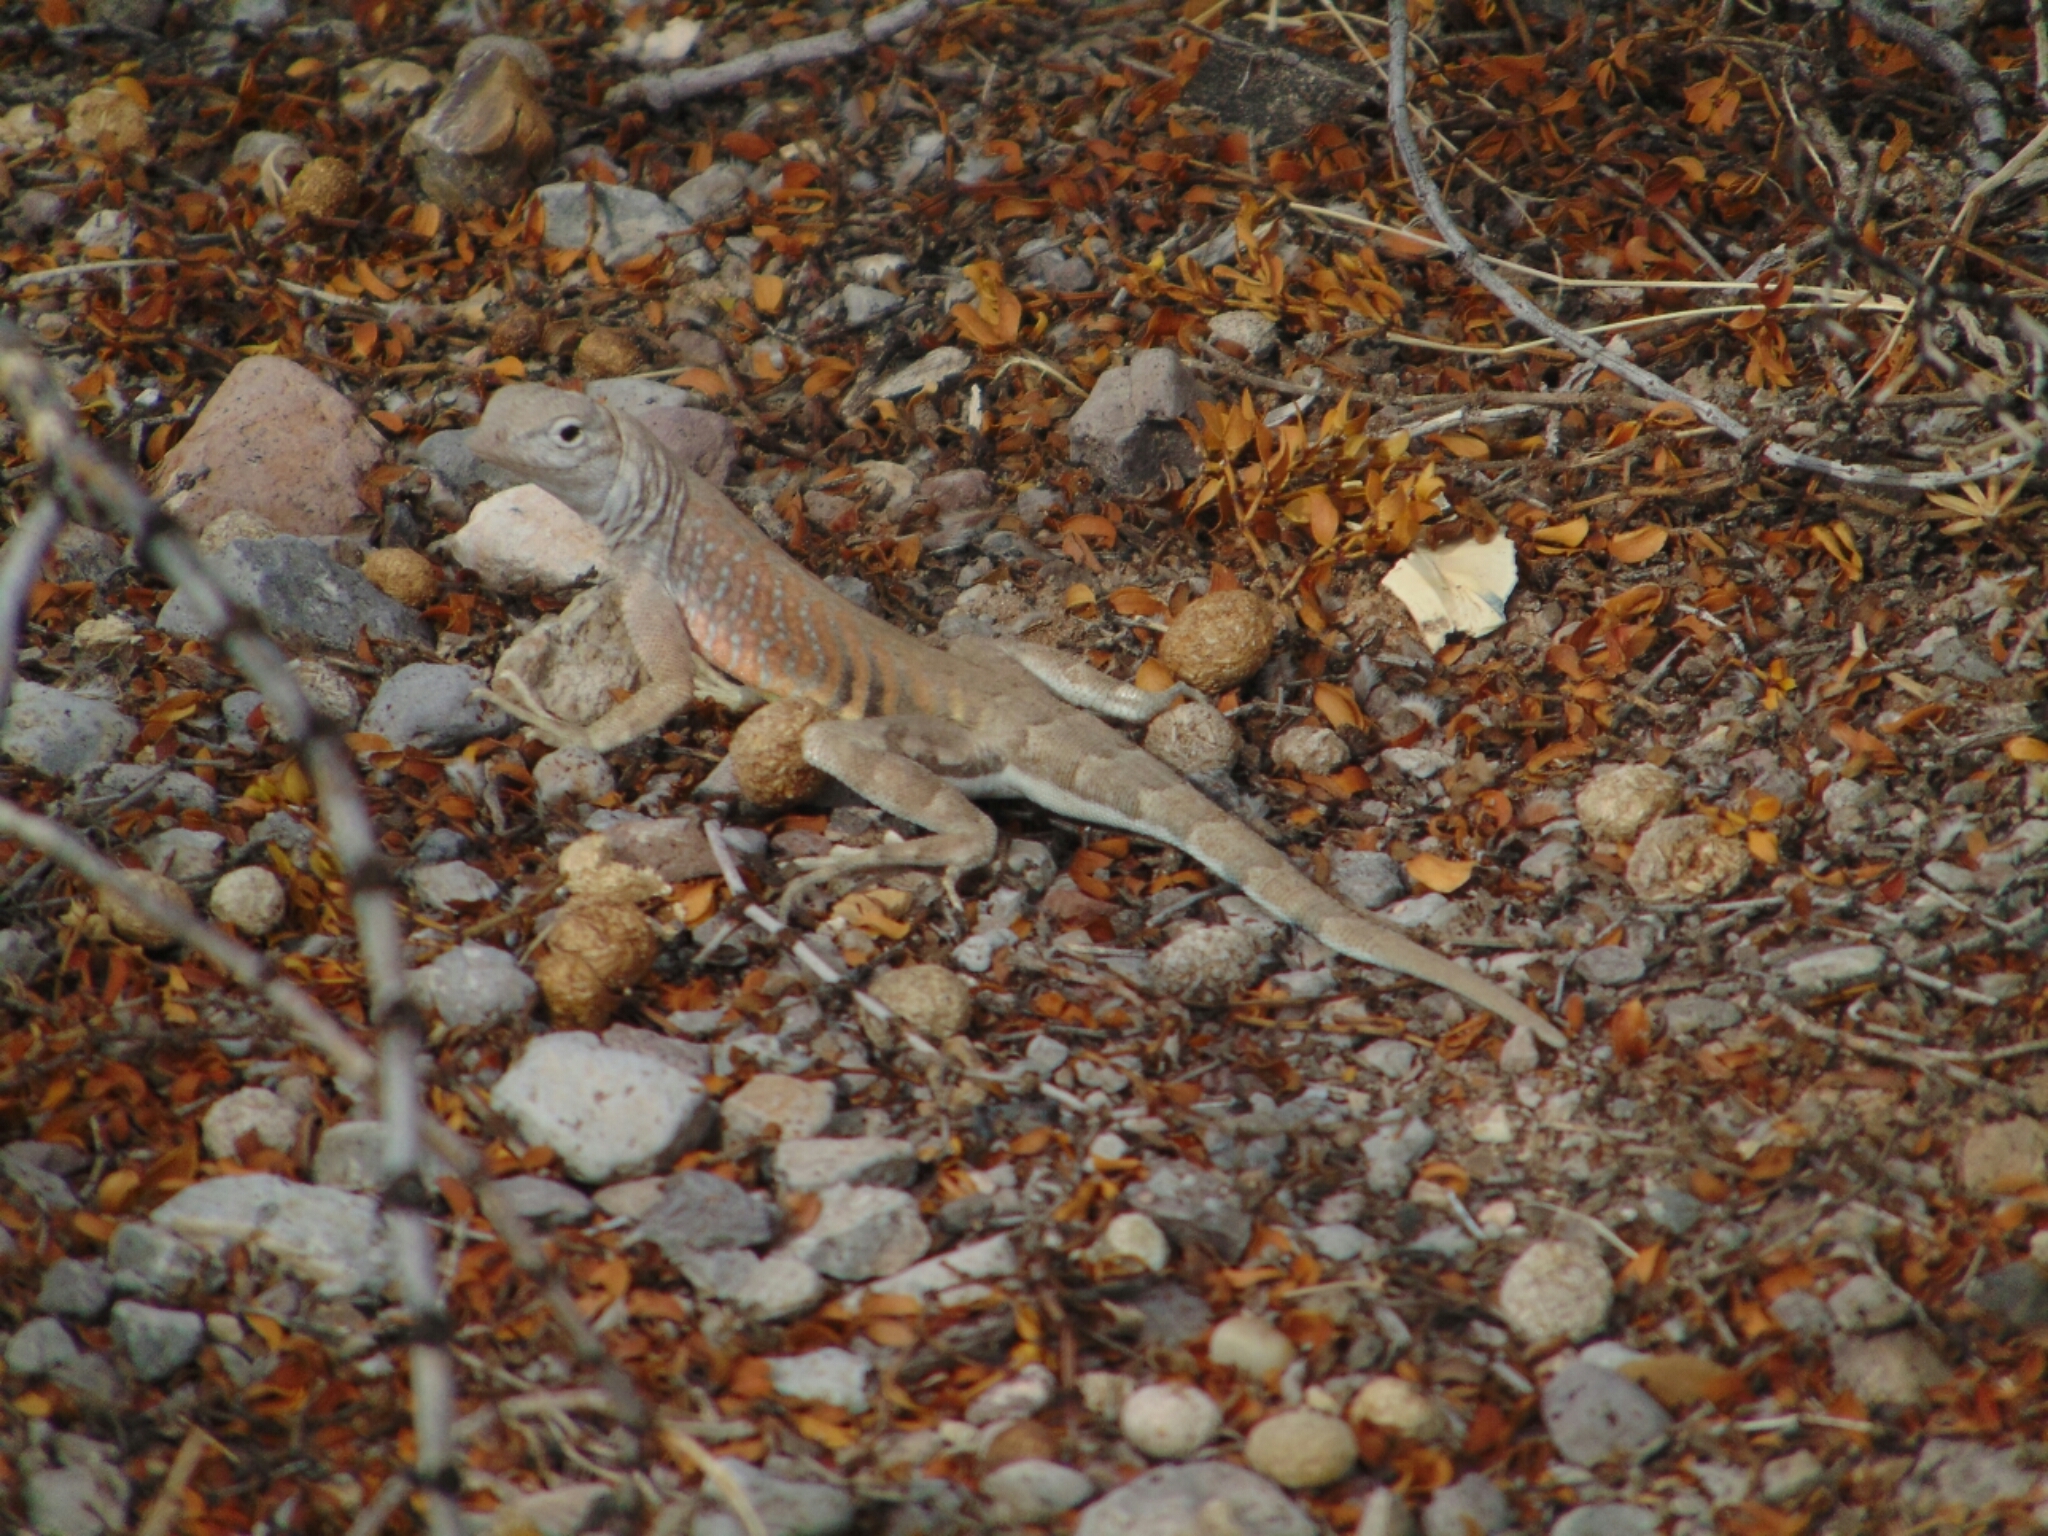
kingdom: Animalia
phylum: Chordata
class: Squamata
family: Phrynosomatidae
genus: Cophosaurus
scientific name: Cophosaurus texanus
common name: Greater earless lizard
